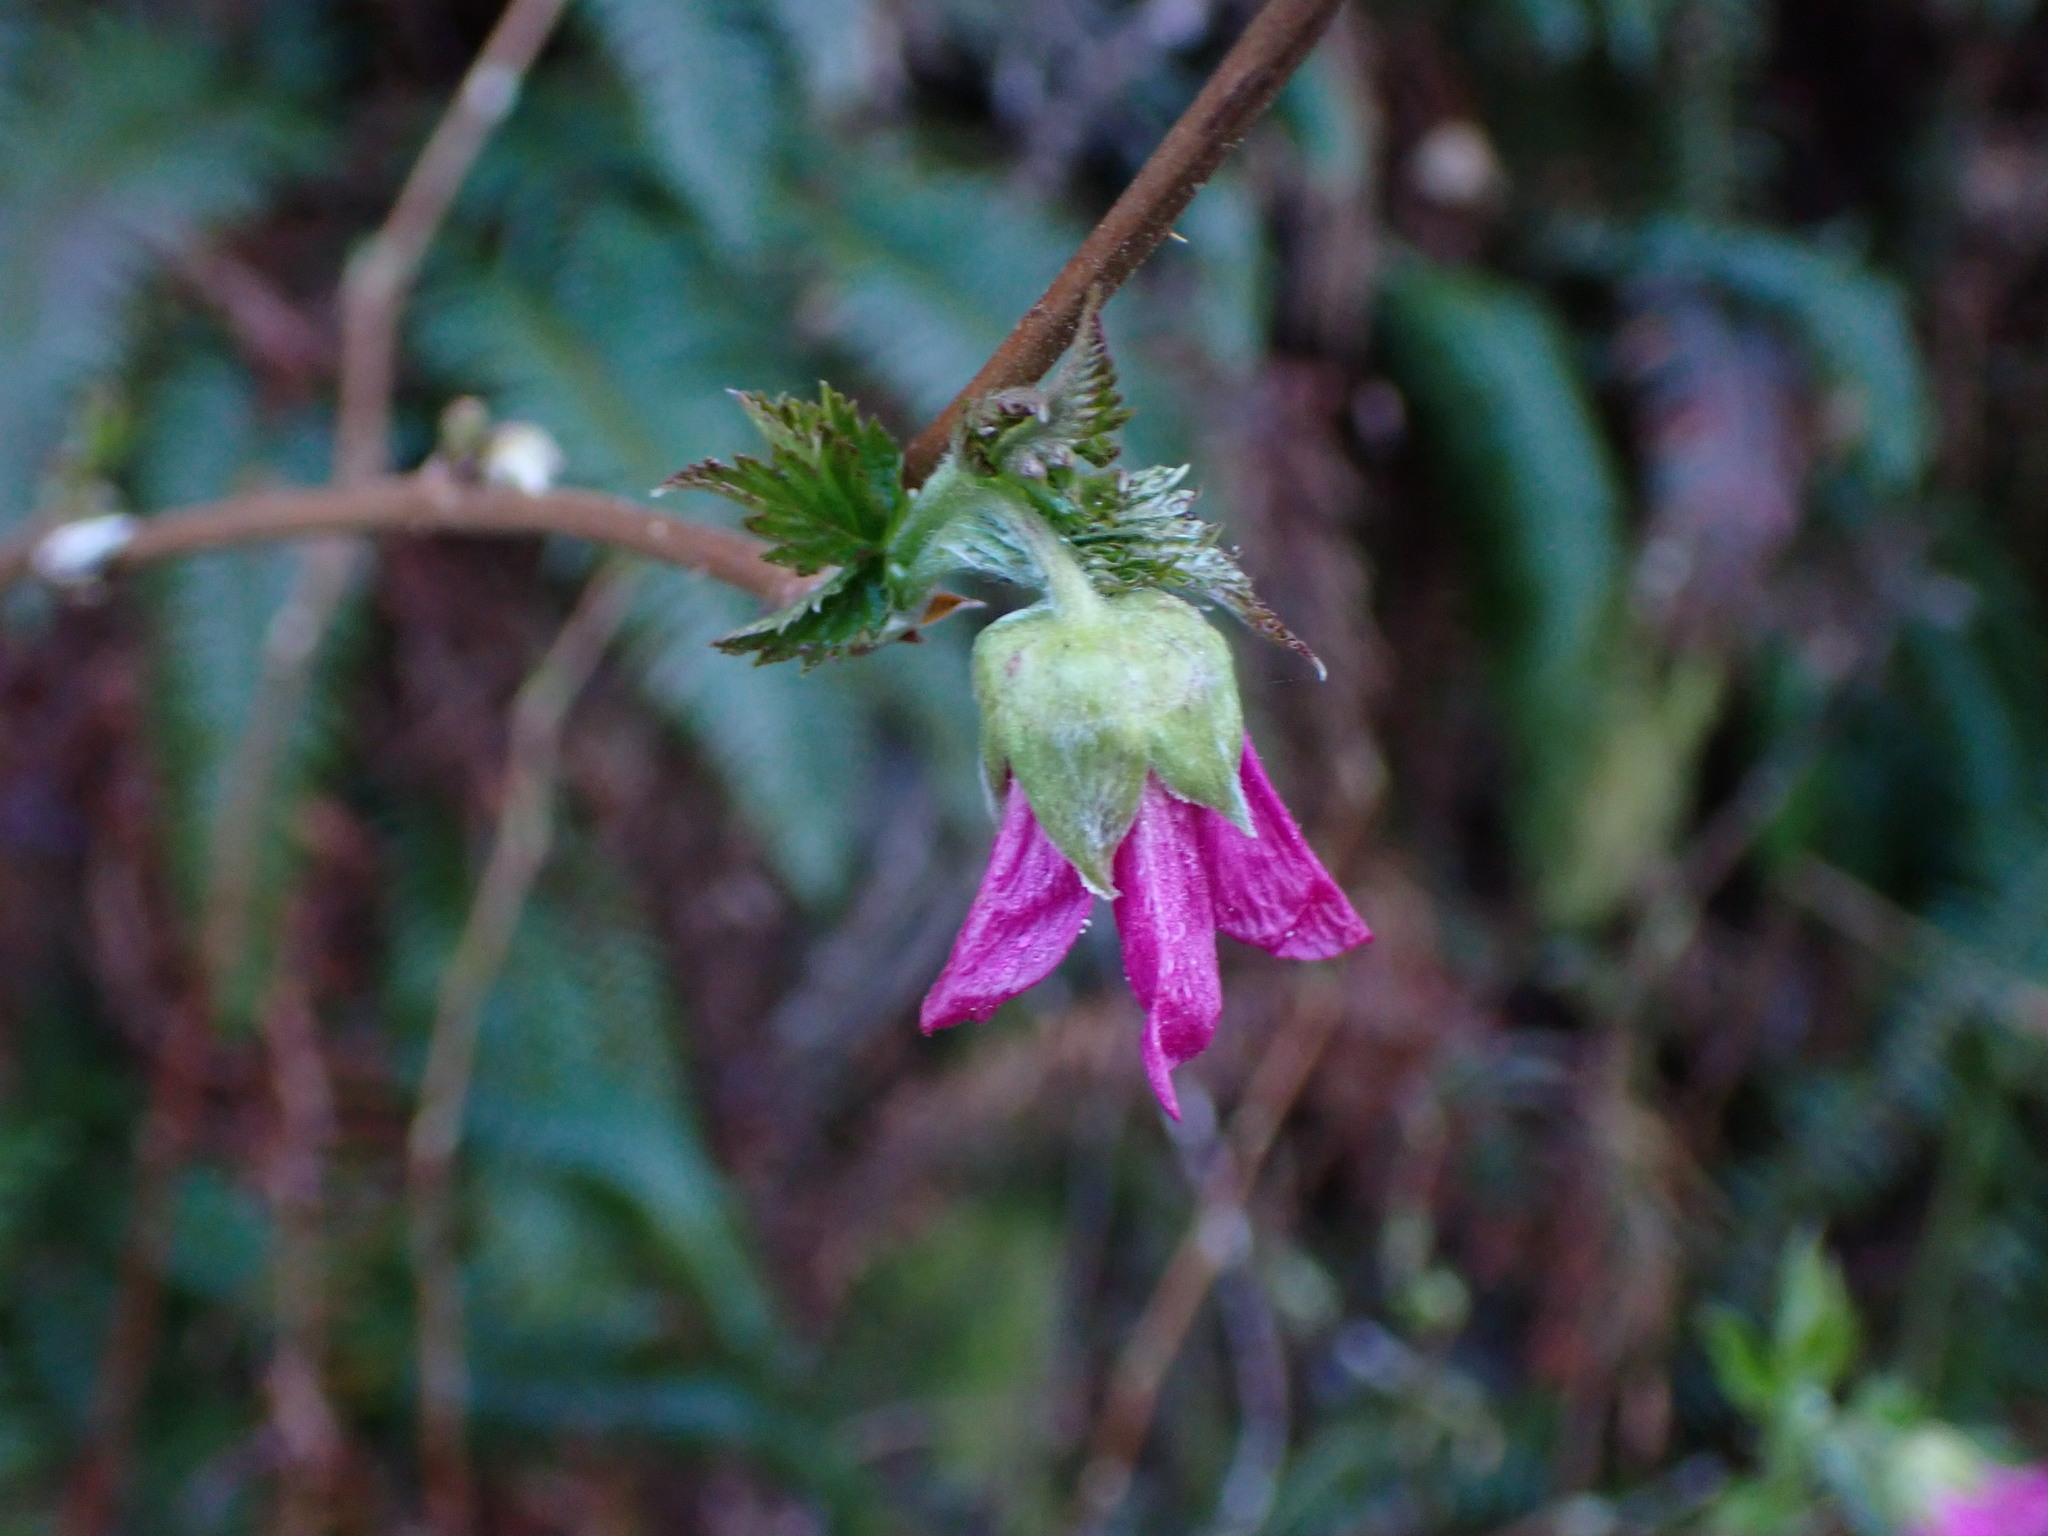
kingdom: Plantae
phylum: Tracheophyta
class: Magnoliopsida
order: Rosales
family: Rosaceae
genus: Rubus
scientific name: Rubus spectabilis
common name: Salmonberry
